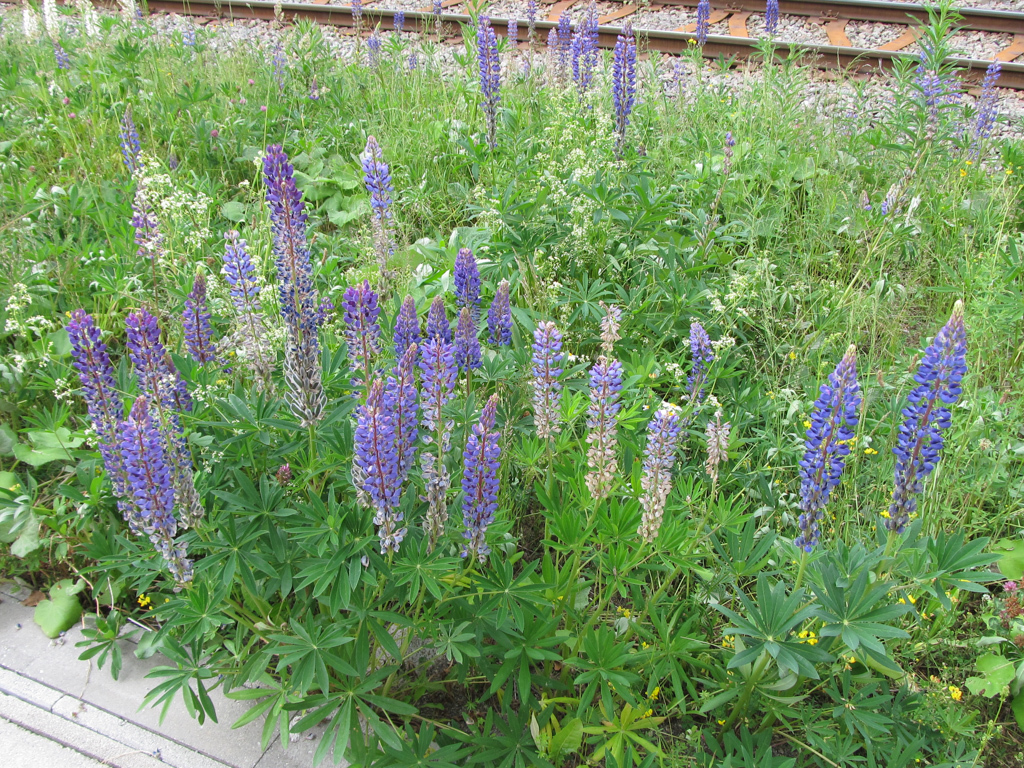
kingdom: Plantae
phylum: Tracheophyta
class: Magnoliopsida
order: Fabales
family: Fabaceae
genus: Lupinus
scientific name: Lupinus polyphyllus
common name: Garden lupin
